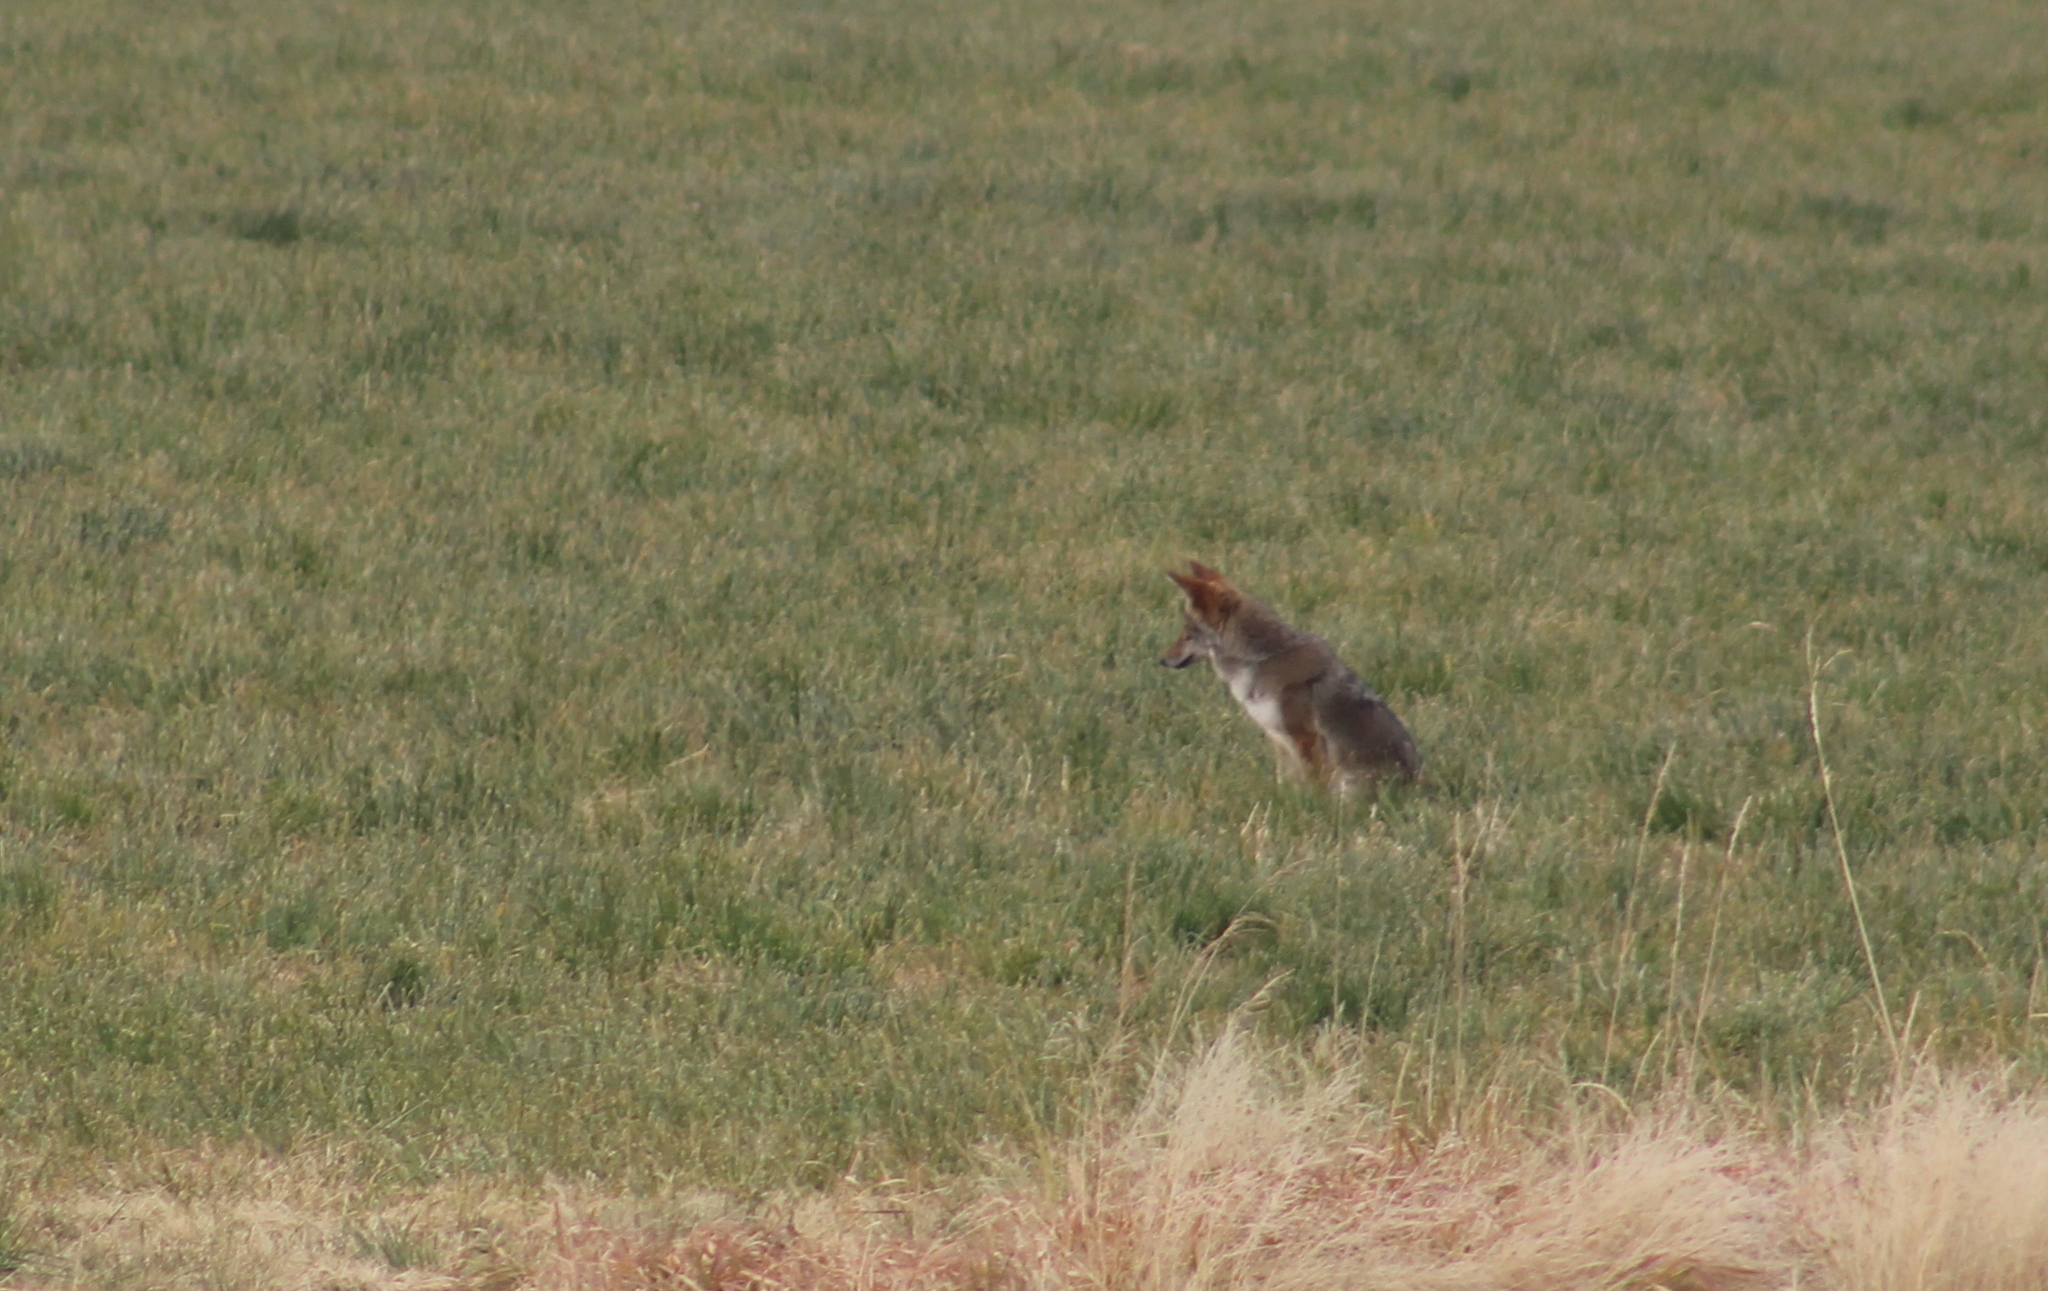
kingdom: Animalia
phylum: Chordata
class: Mammalia
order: Carnivora
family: Canidae
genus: Canis
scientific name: Canis latrans
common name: Coyote
